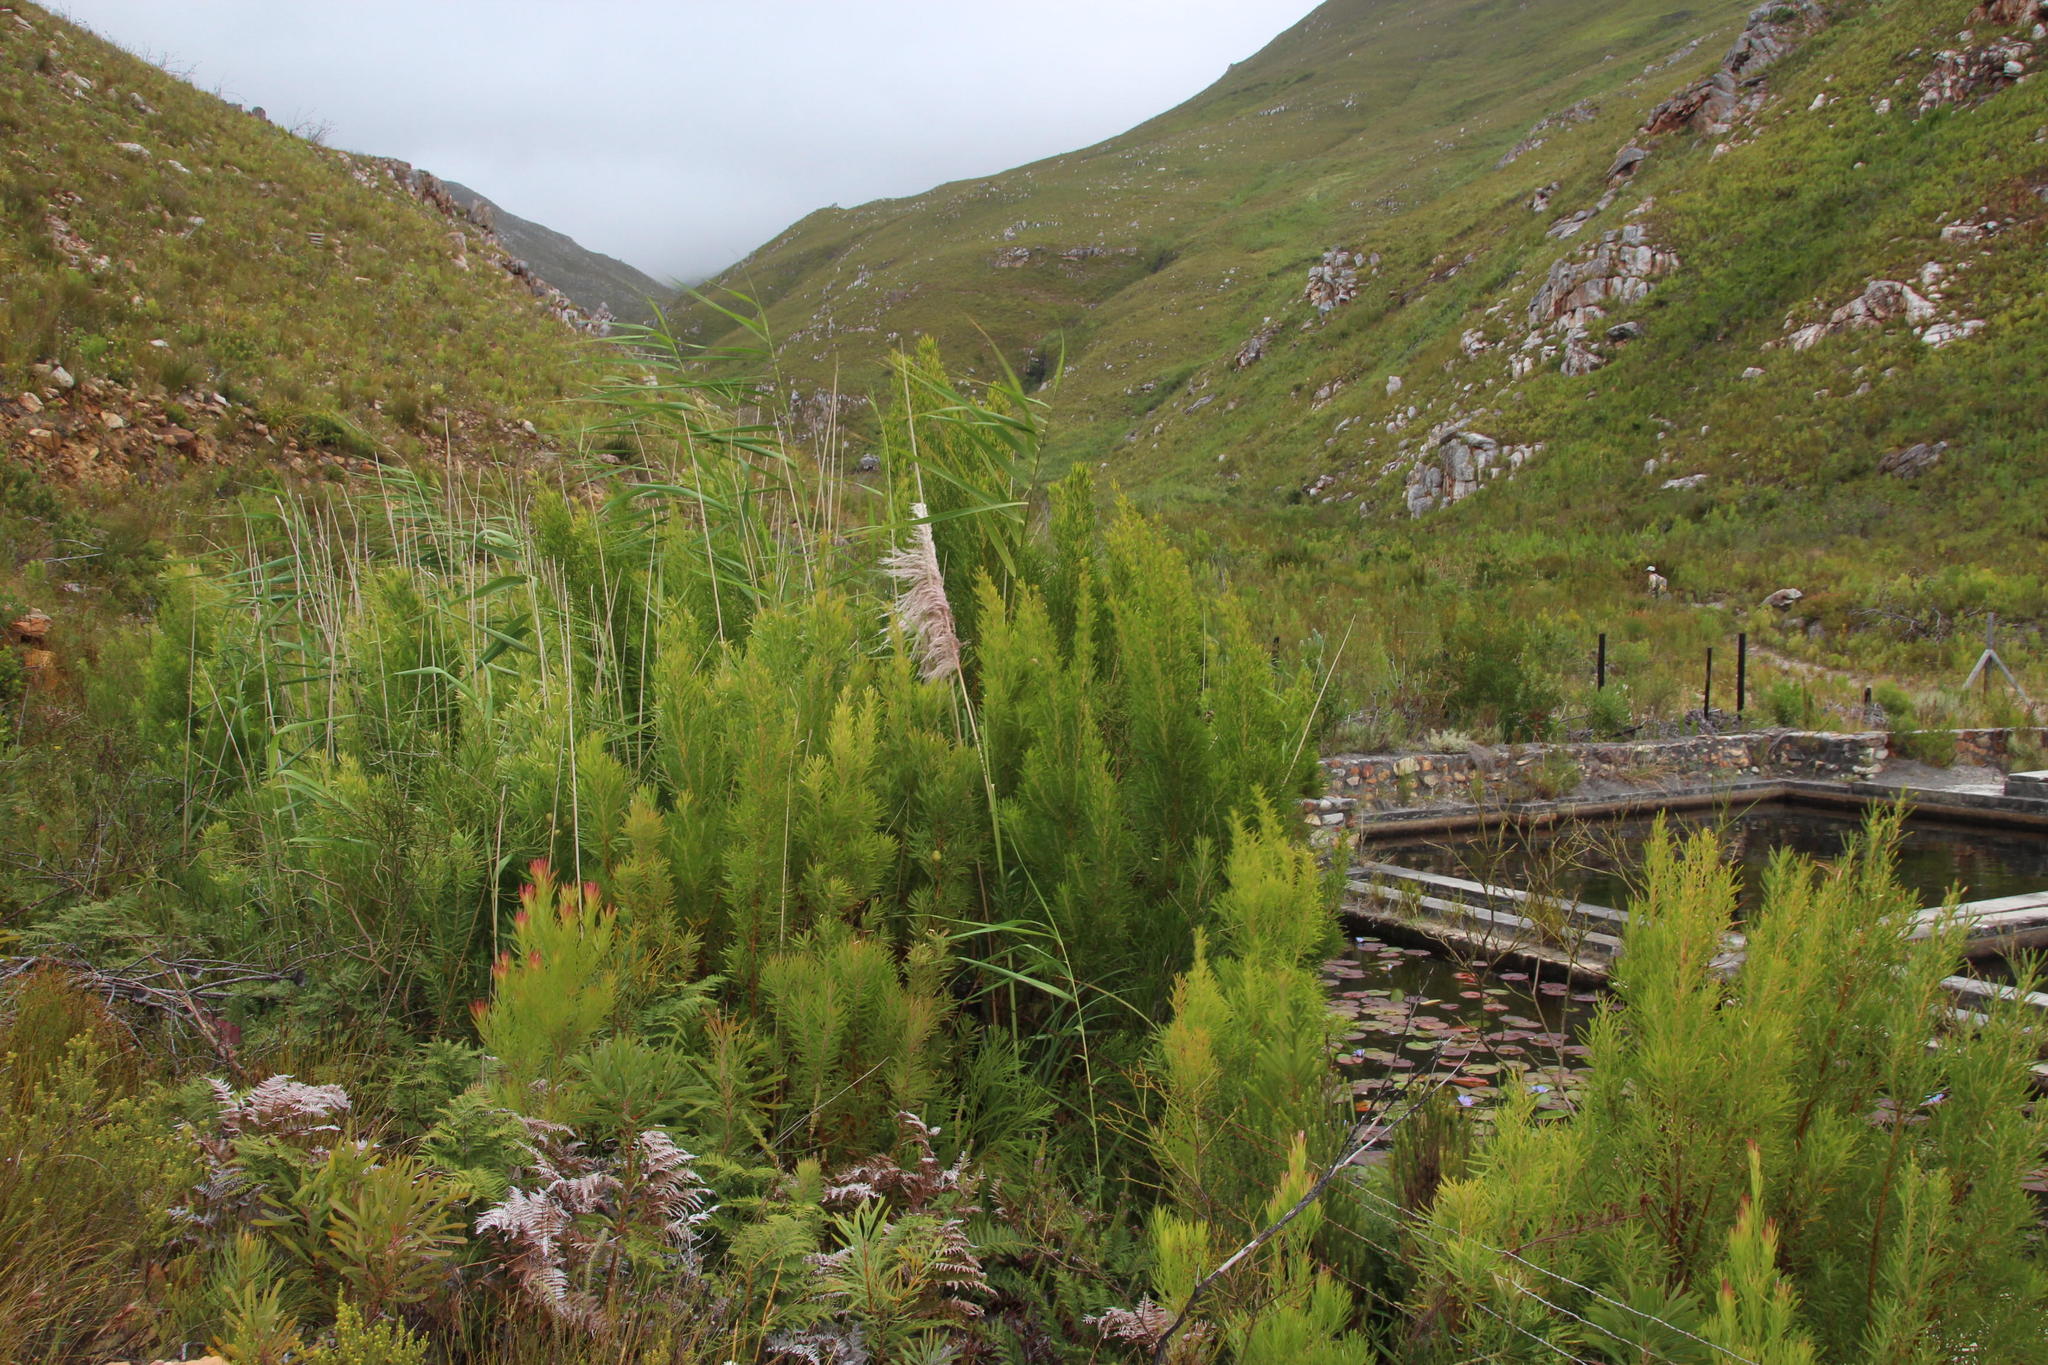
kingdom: Plantae
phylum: Tracheophyta
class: Liliopsida
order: Poales
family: Poaceae
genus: Phragmites
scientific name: Phragmites australis
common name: Common reed
